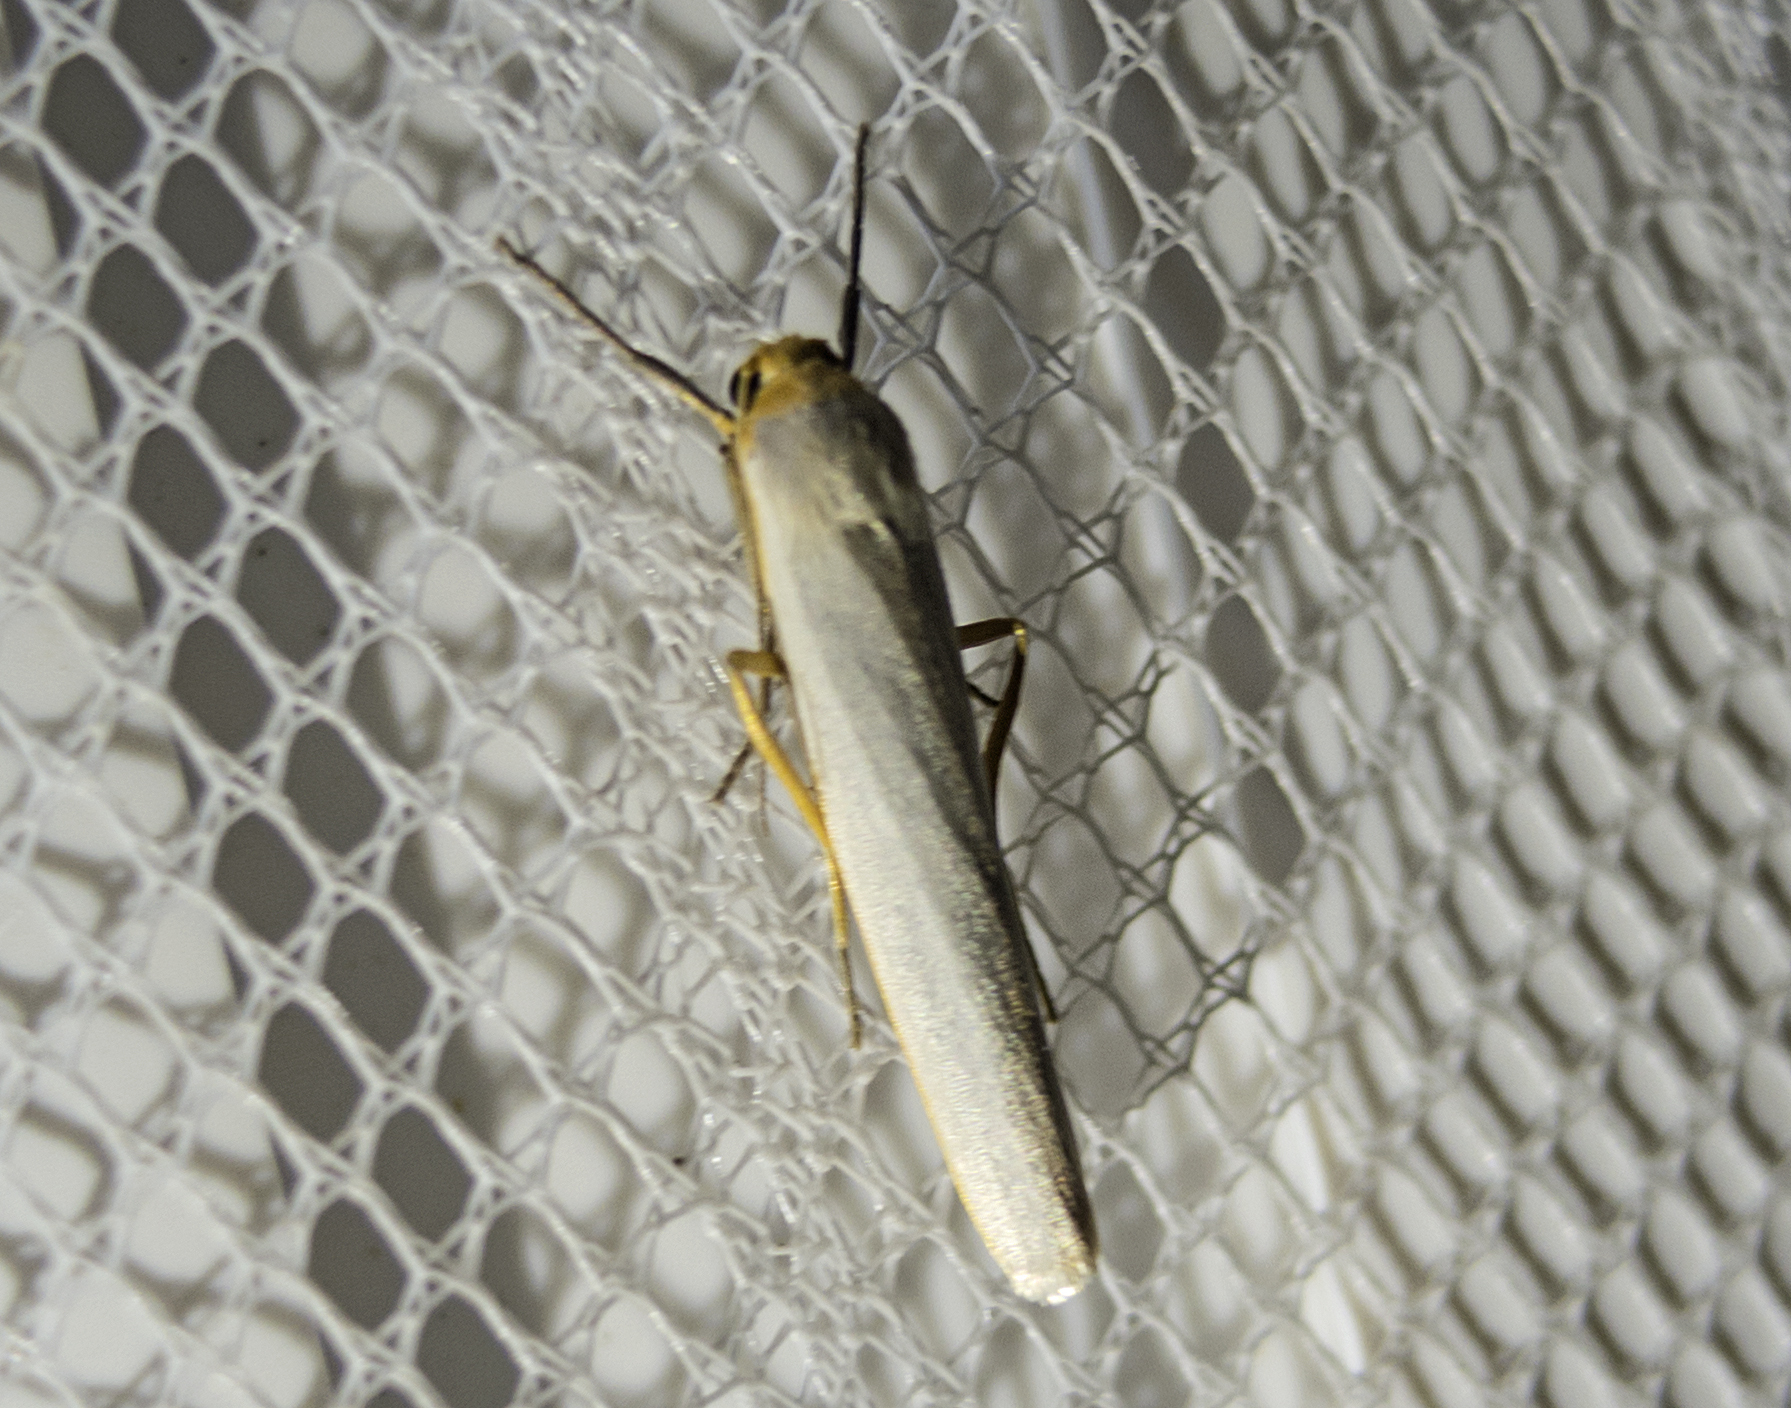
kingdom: Animalia
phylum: Arthropoda
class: Insecta
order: Lepidoptera
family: Erebidae
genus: Eilema
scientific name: Eilema caniola
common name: Hoary footman
